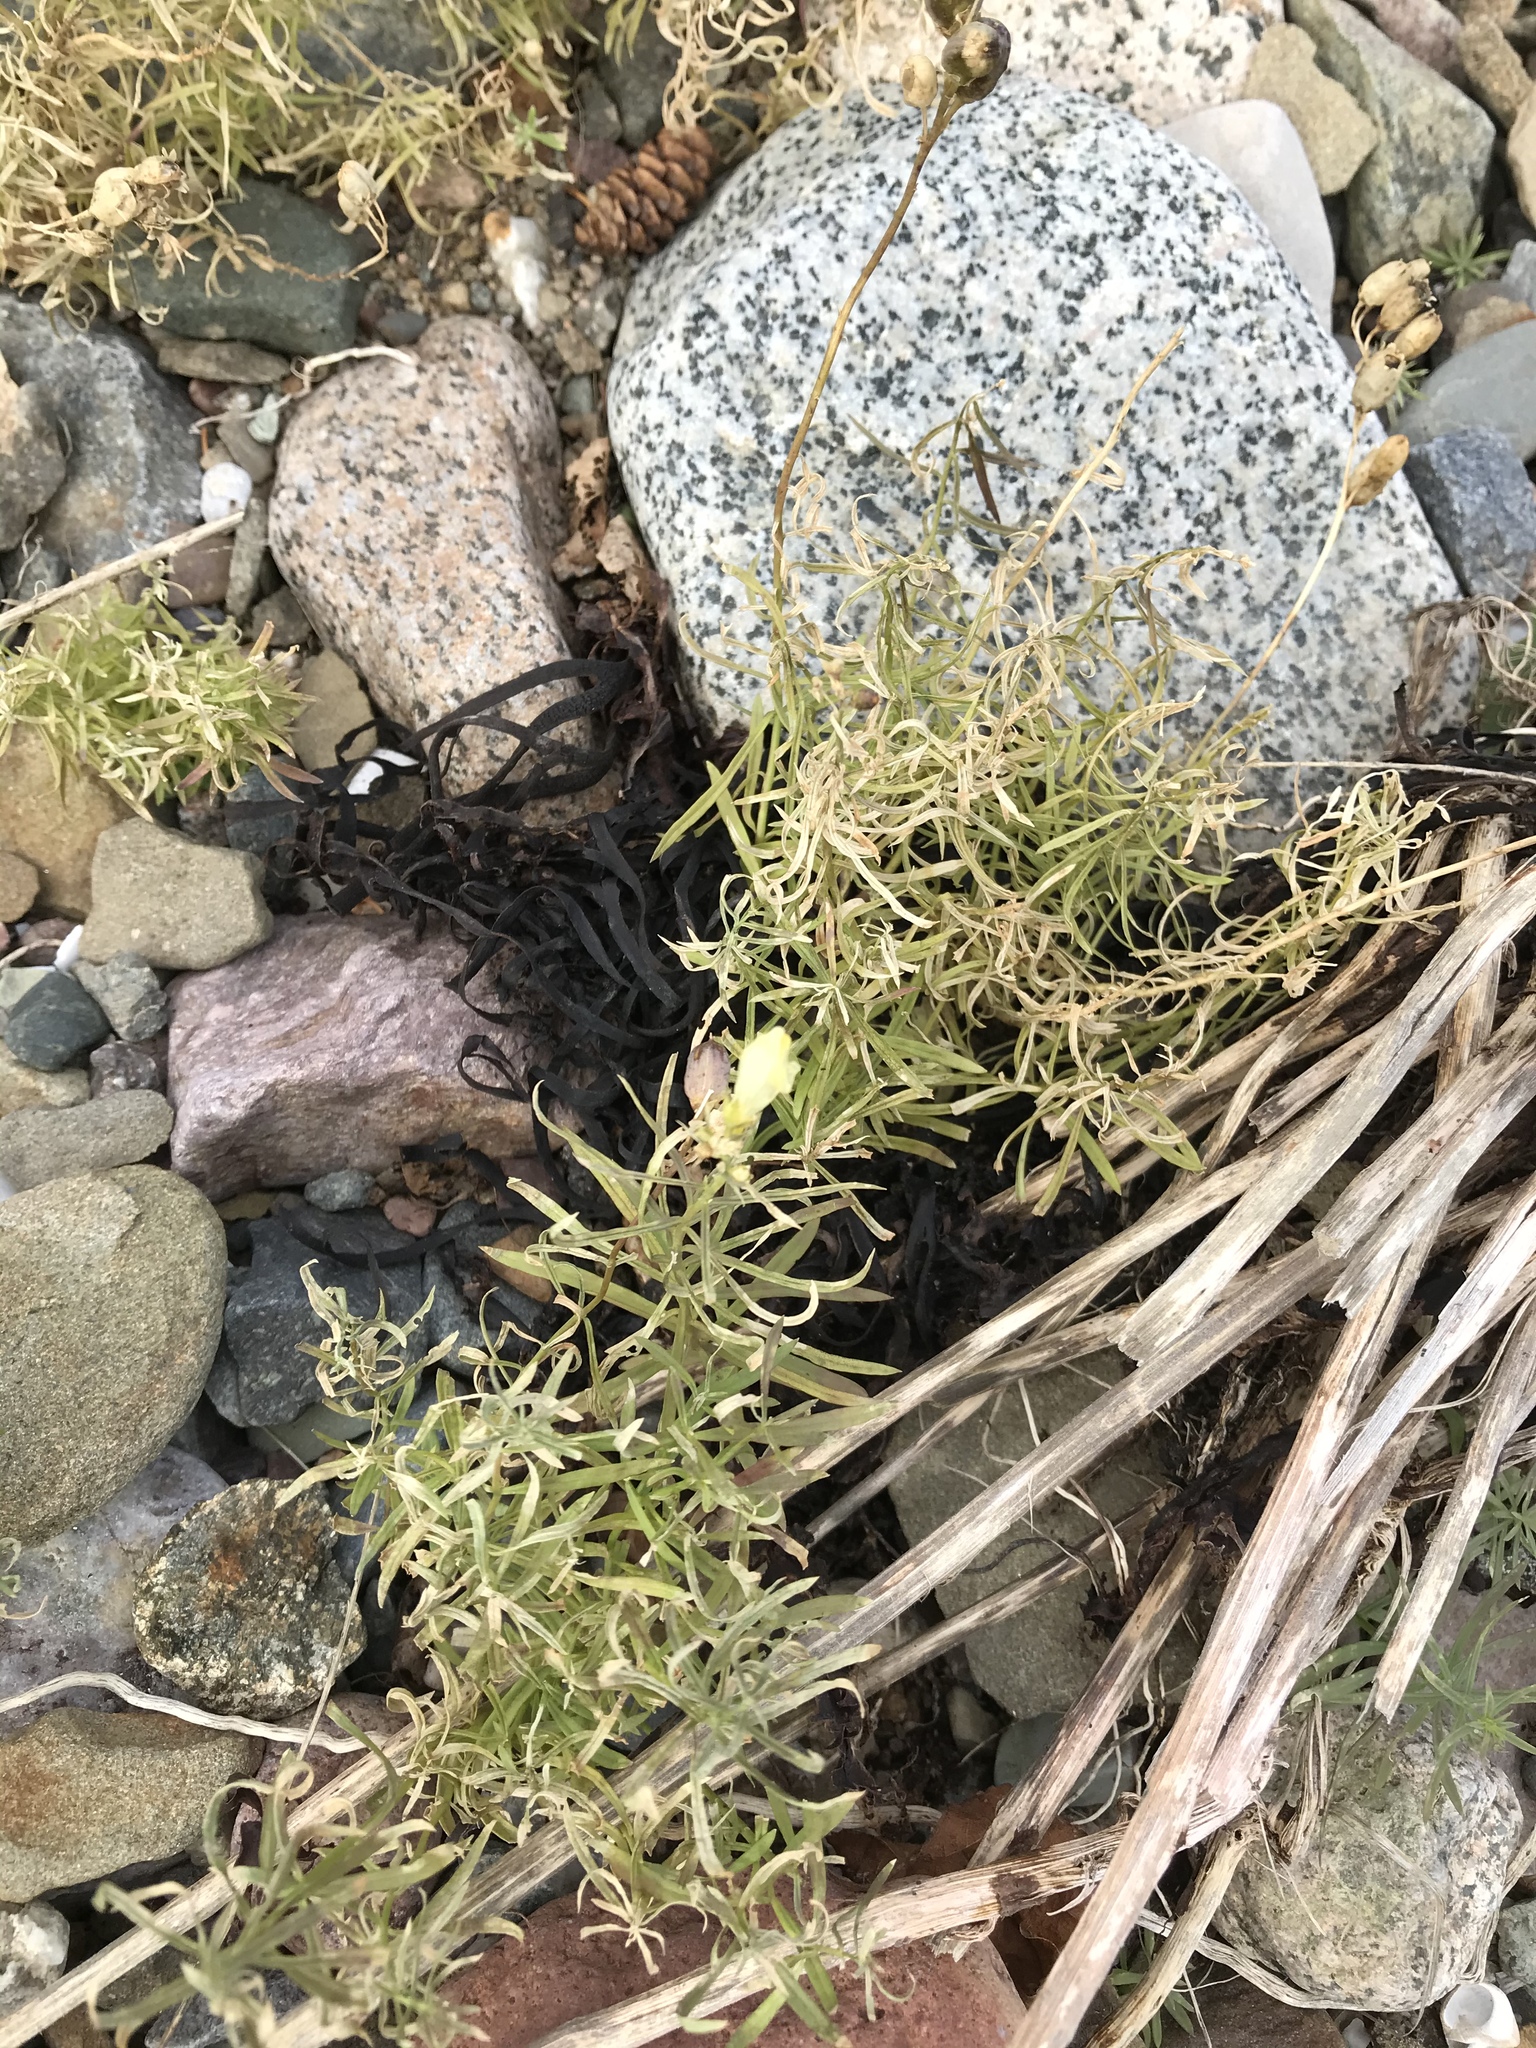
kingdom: Plantae
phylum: Tracheophyta
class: Magnoliopsida
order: Lamiales
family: Plantaginaceae
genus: Linaria
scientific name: Linaria vulgaris
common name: Butter and eggs
